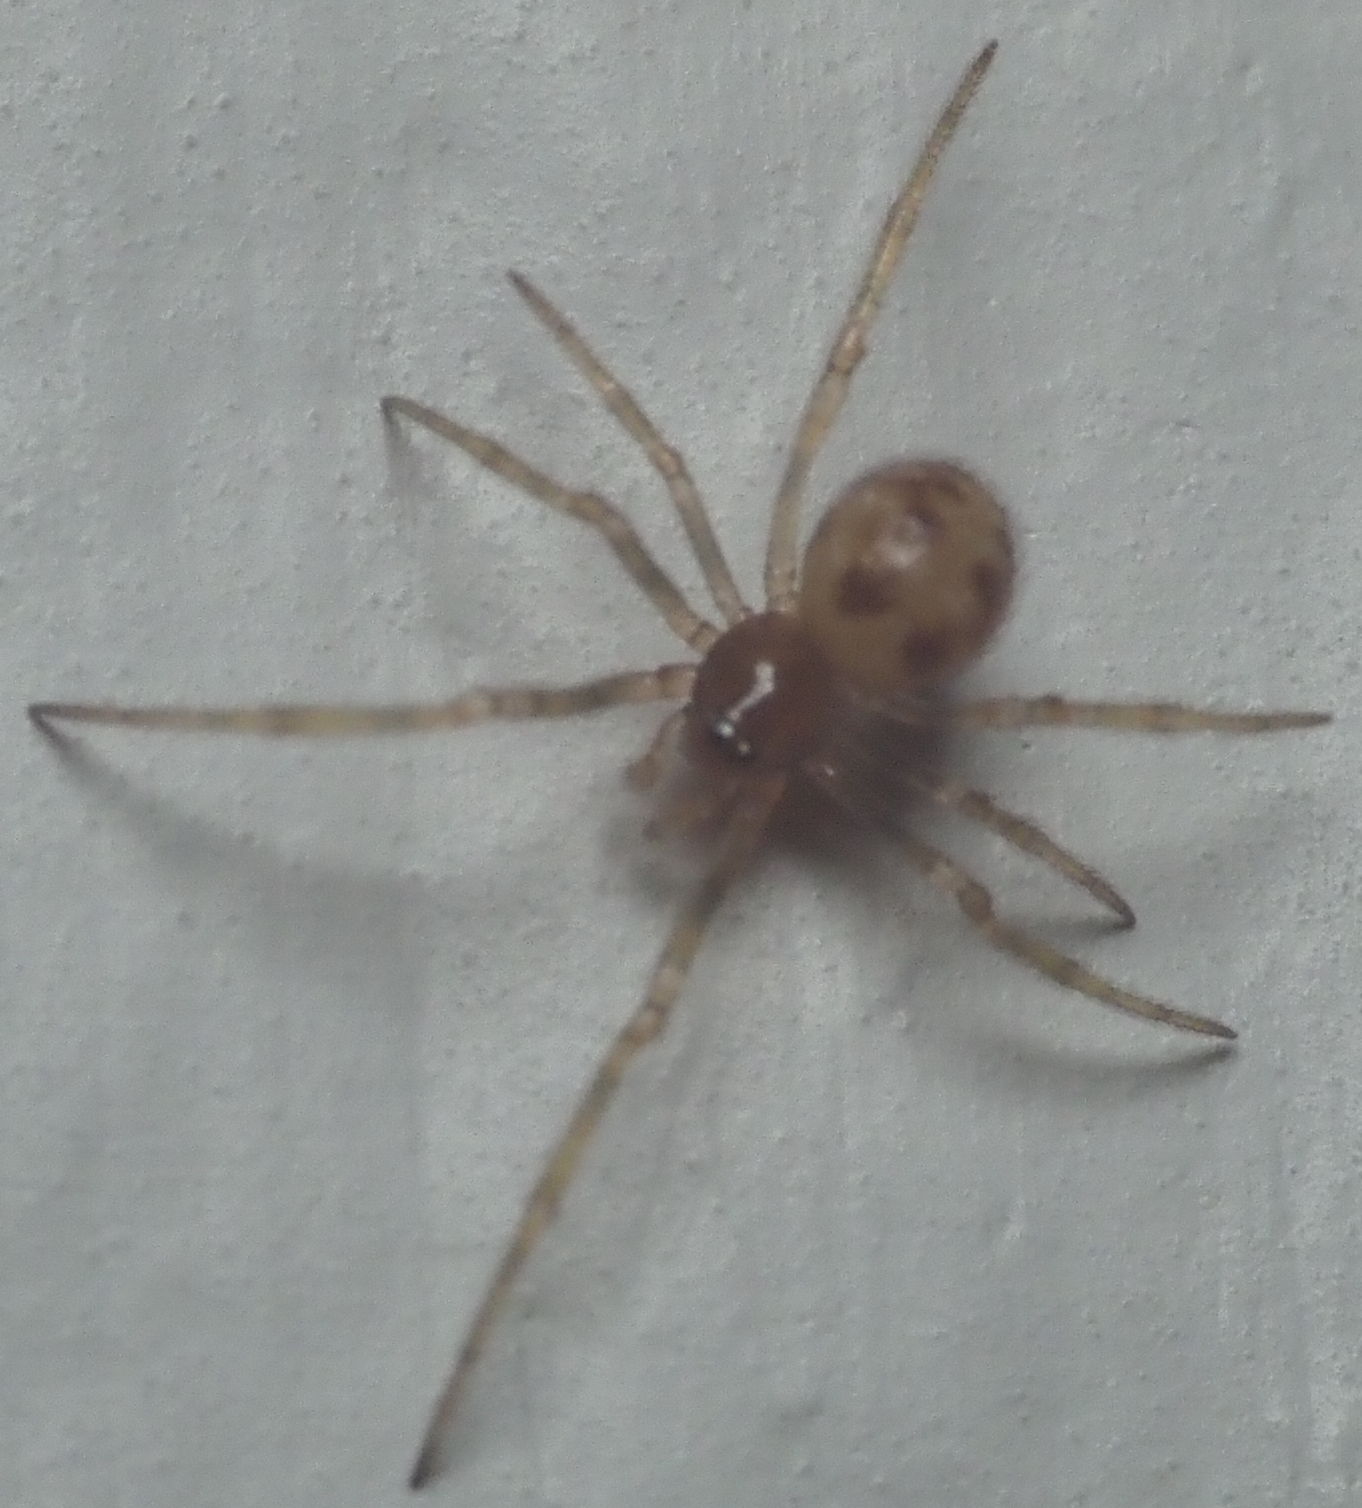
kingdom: Animalia
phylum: Arthropoda
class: Arachnida
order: Araneae
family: Theridiidae
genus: Steatoda
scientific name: Steatoda triangulosa
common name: Triangulate bud spider
